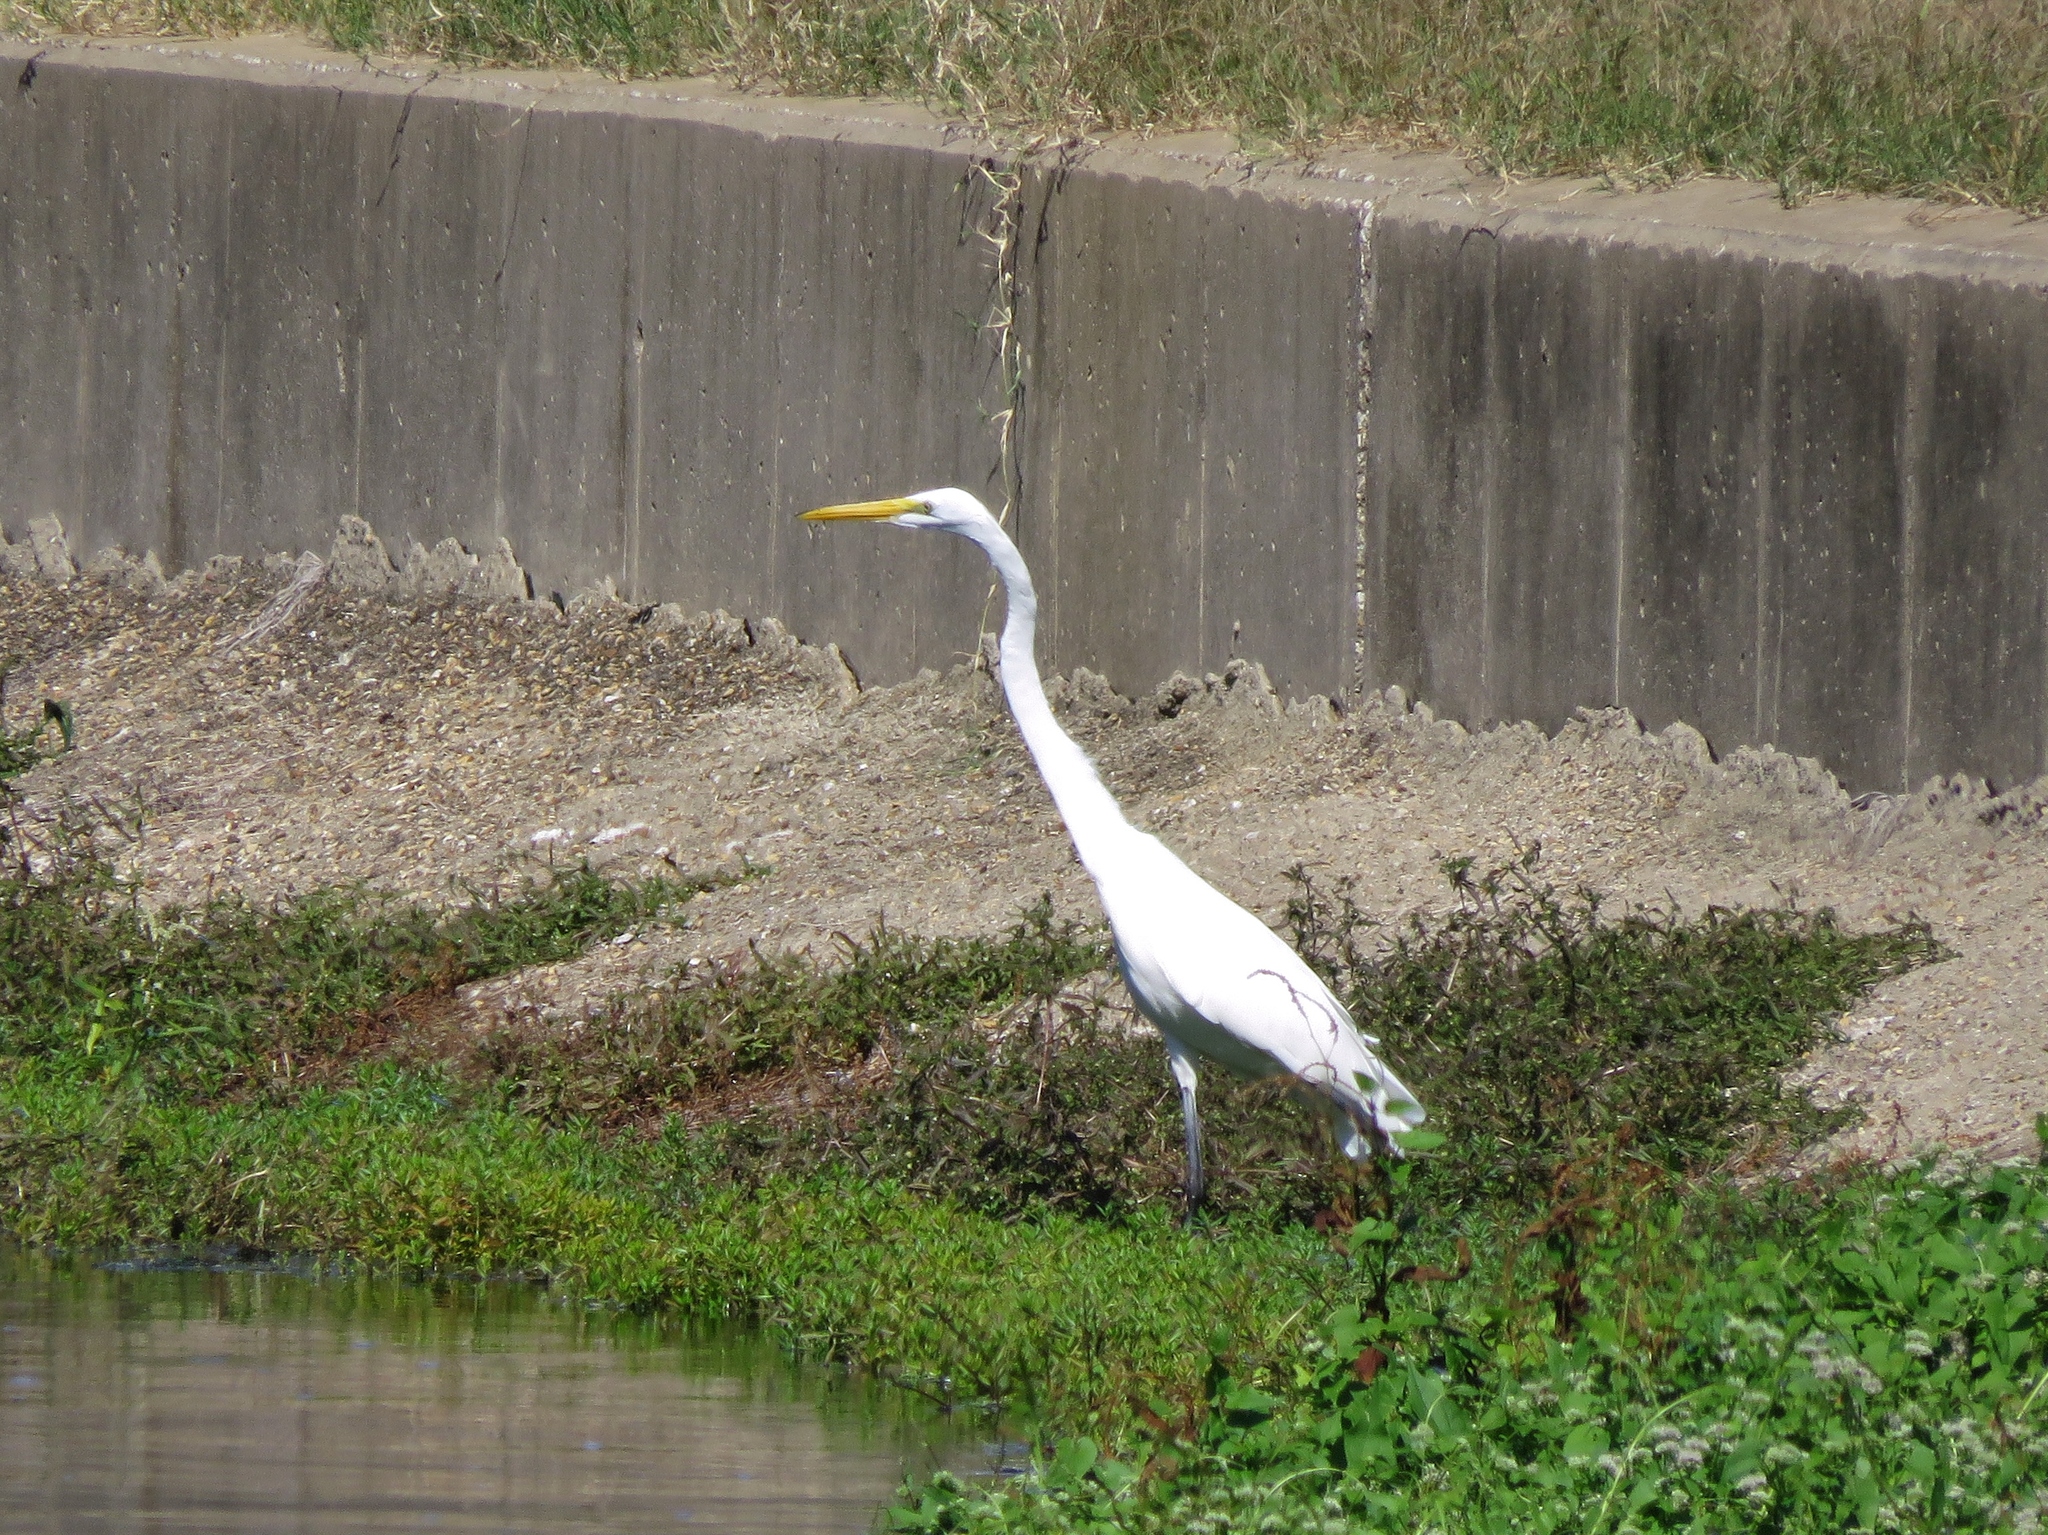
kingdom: Animalia
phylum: Chordata
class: Aves
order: Pelecaniformes
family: Ardeidae
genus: Ardea
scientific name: Ardea alba
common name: Great egret
